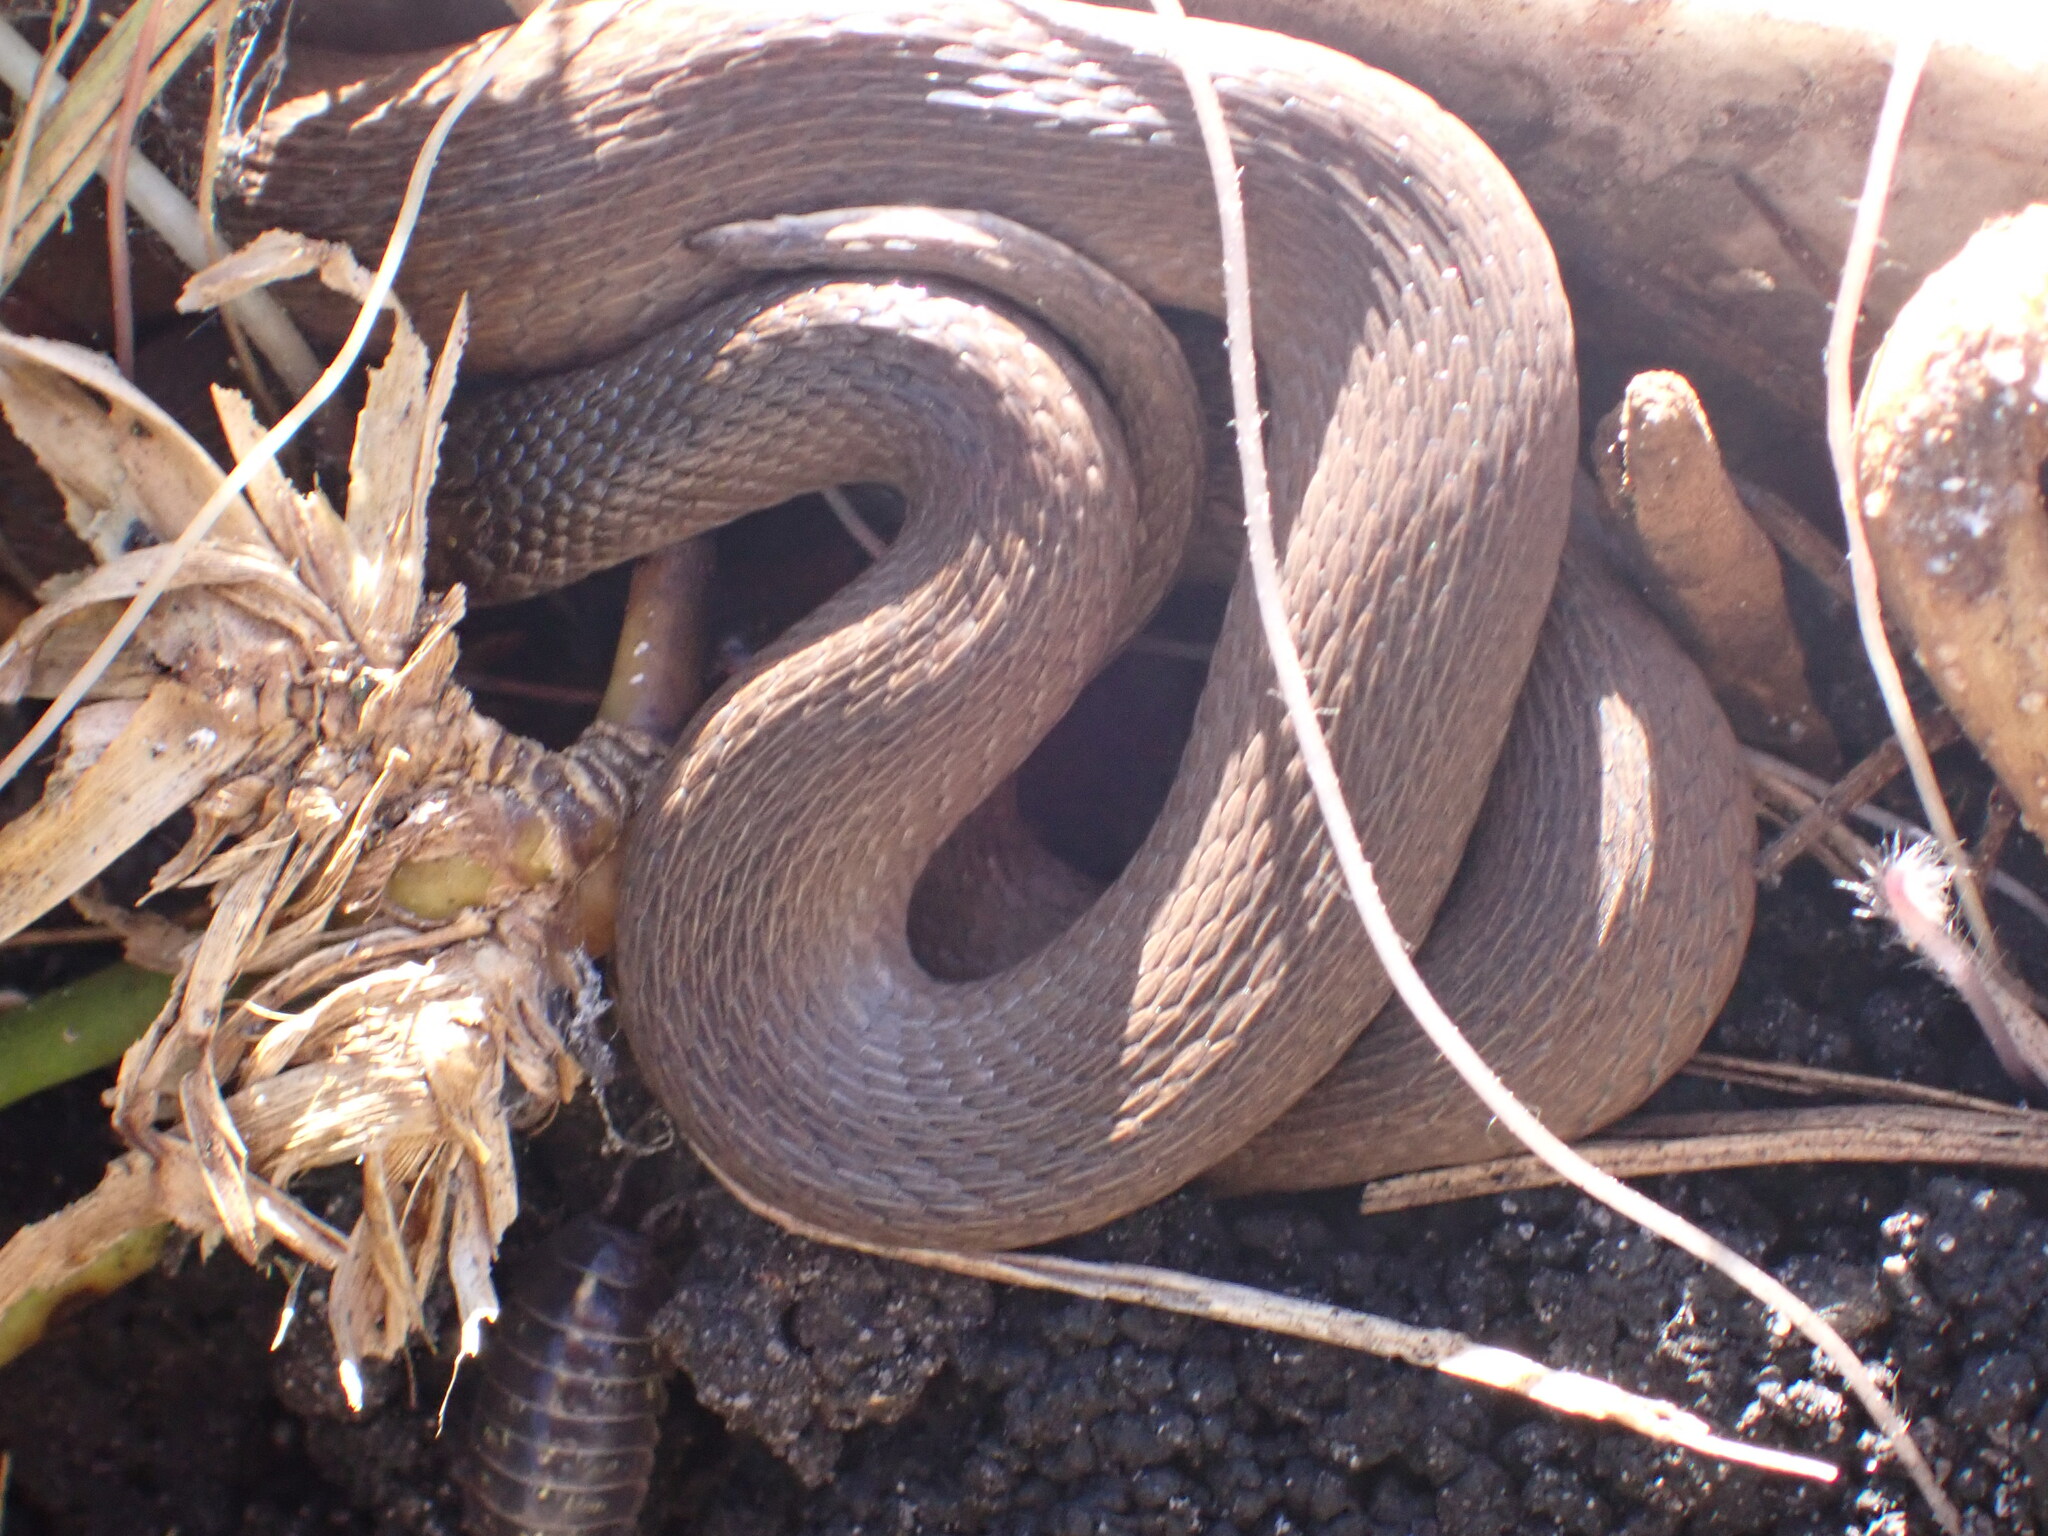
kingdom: Animalia
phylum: Chordata
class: Squamata
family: Colubridae
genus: Haldea
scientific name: Haldea striatula
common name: Rough earth snake
